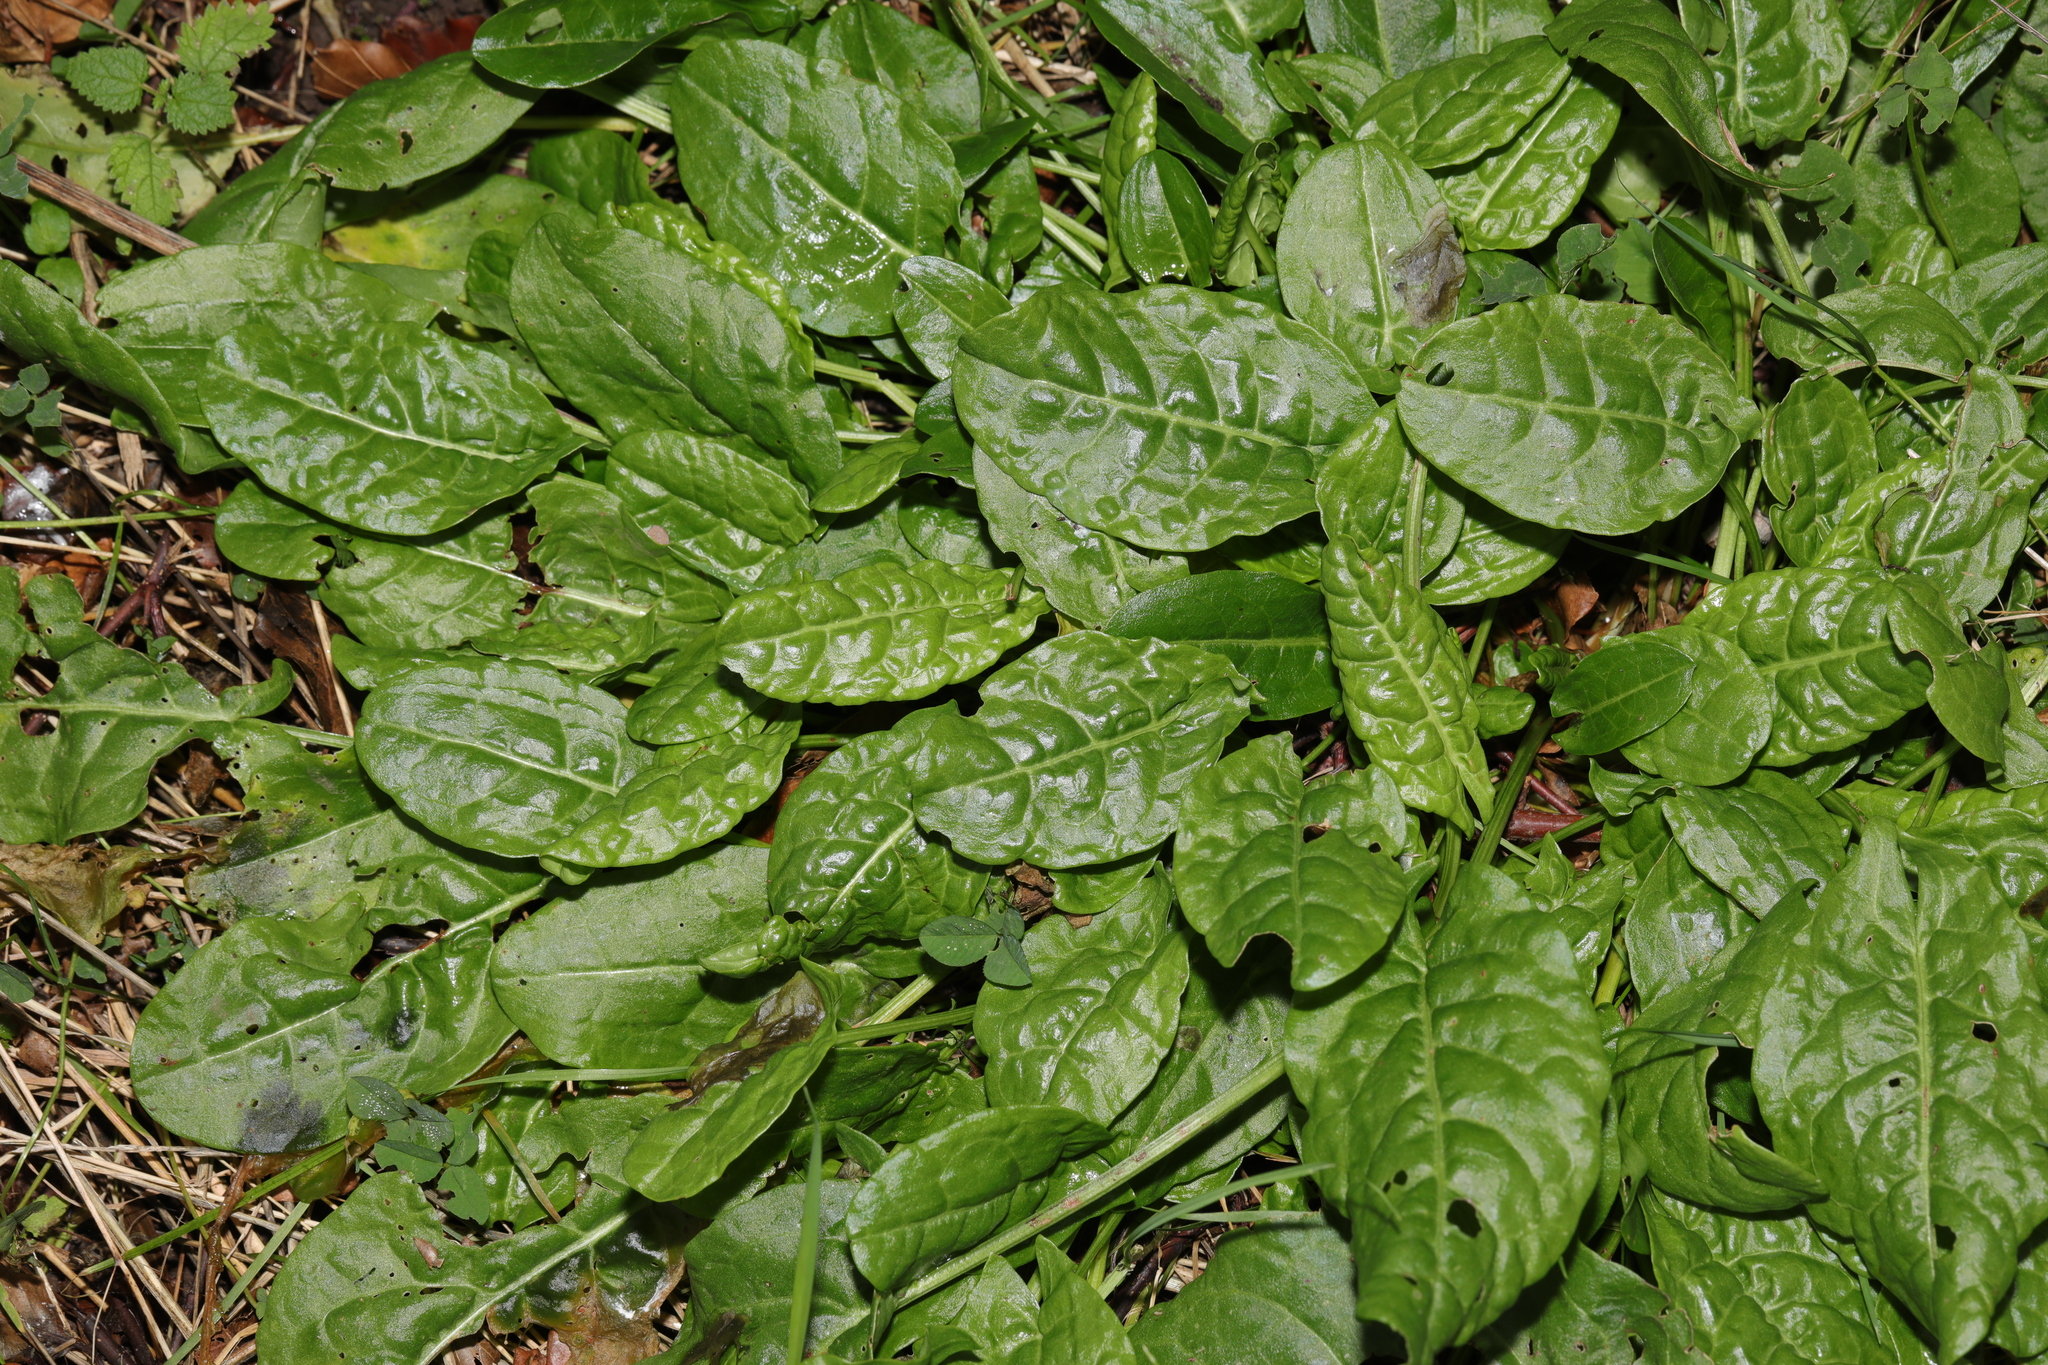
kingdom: Plantae
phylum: Tracheophyta
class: Magnoliopsida
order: Caryophyllales
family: Polygonaceae
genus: Rumex
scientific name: Rumex acetosa
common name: Garden sorrel
